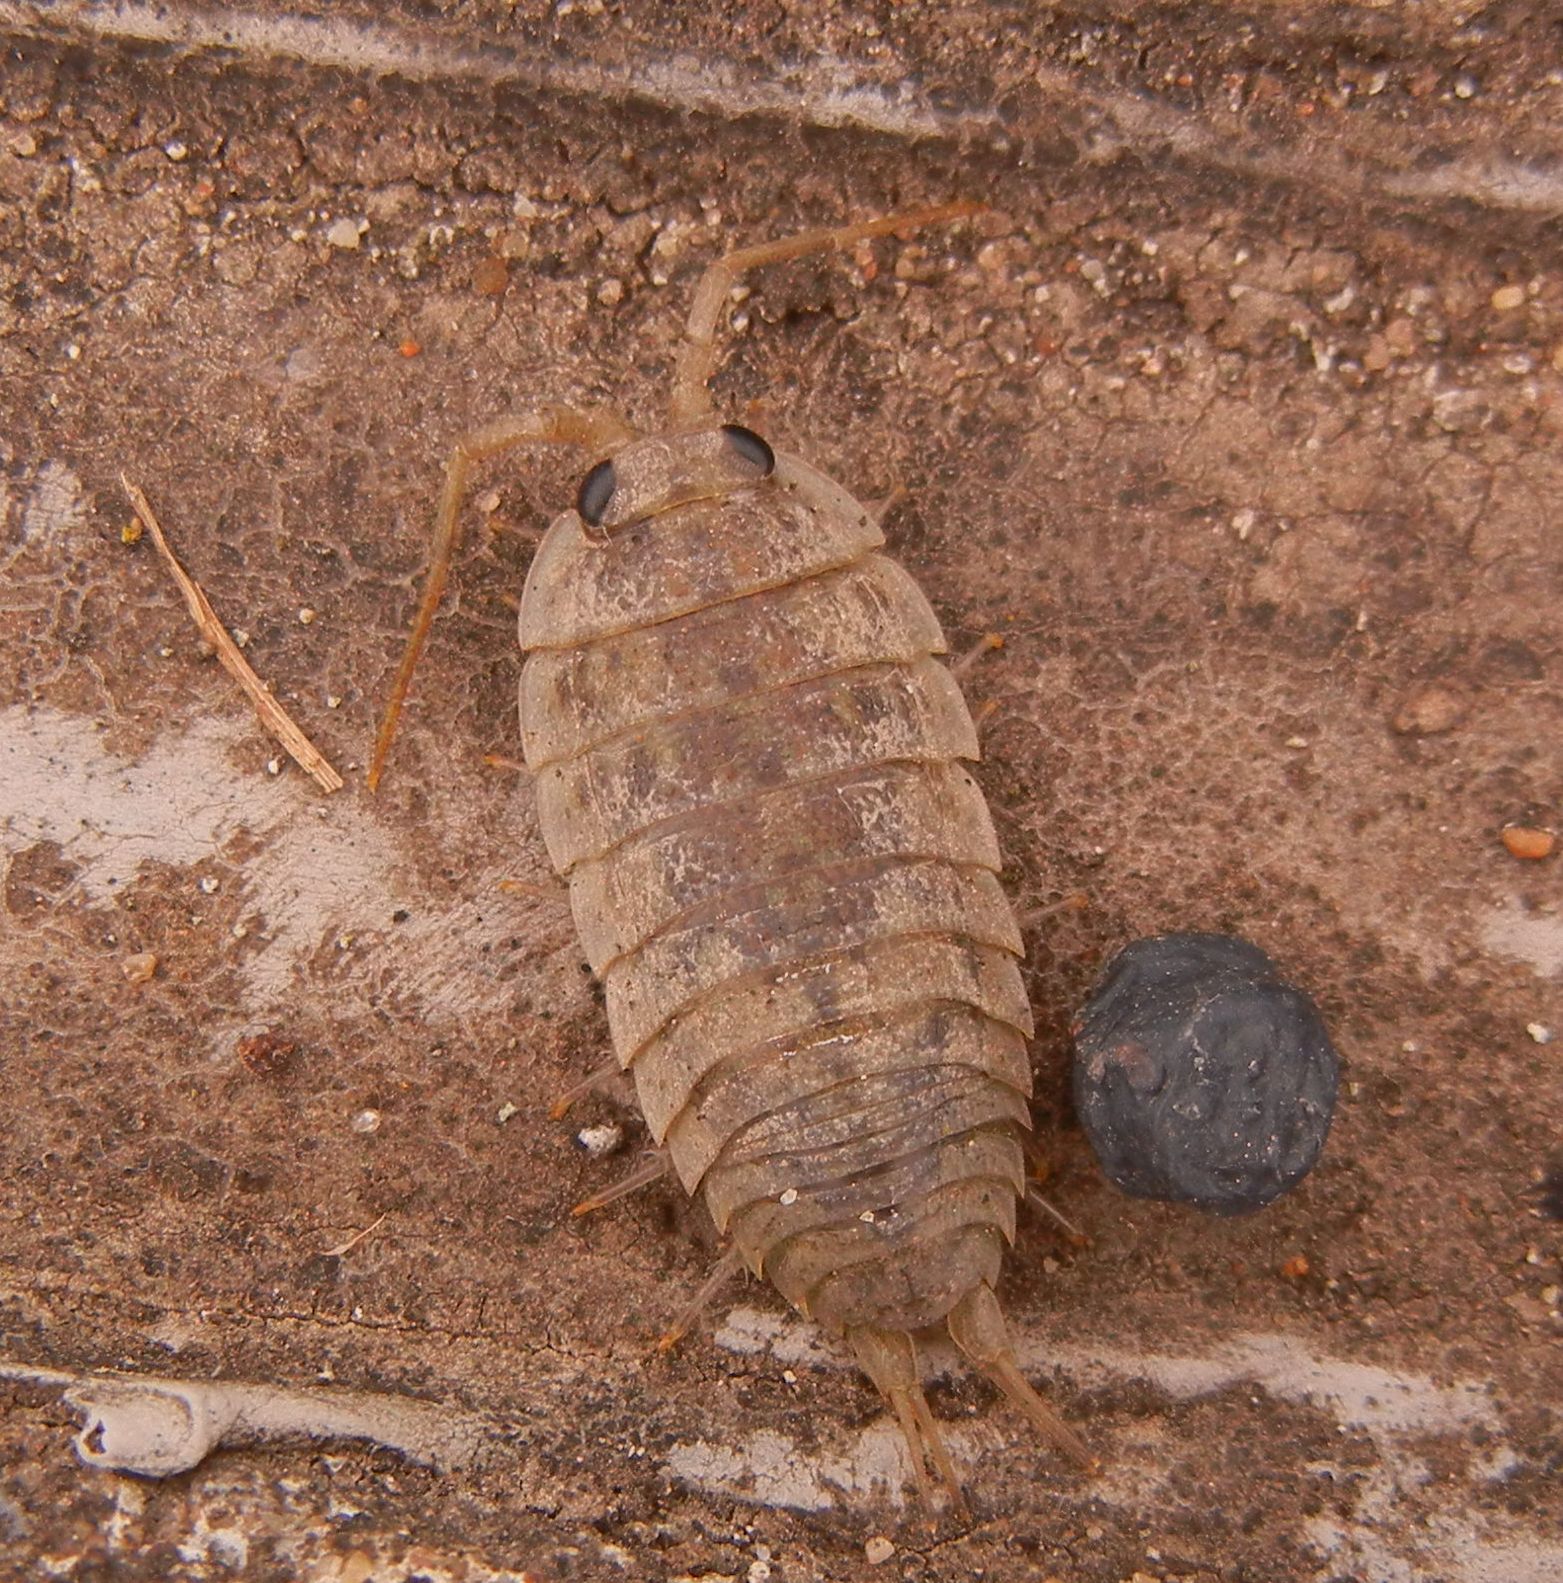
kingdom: Animalia
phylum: Arthropoda
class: Malacostraca
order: Isopoda
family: Ligiidae
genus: Ligia
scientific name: Ligia oceanica
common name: Sea slater
